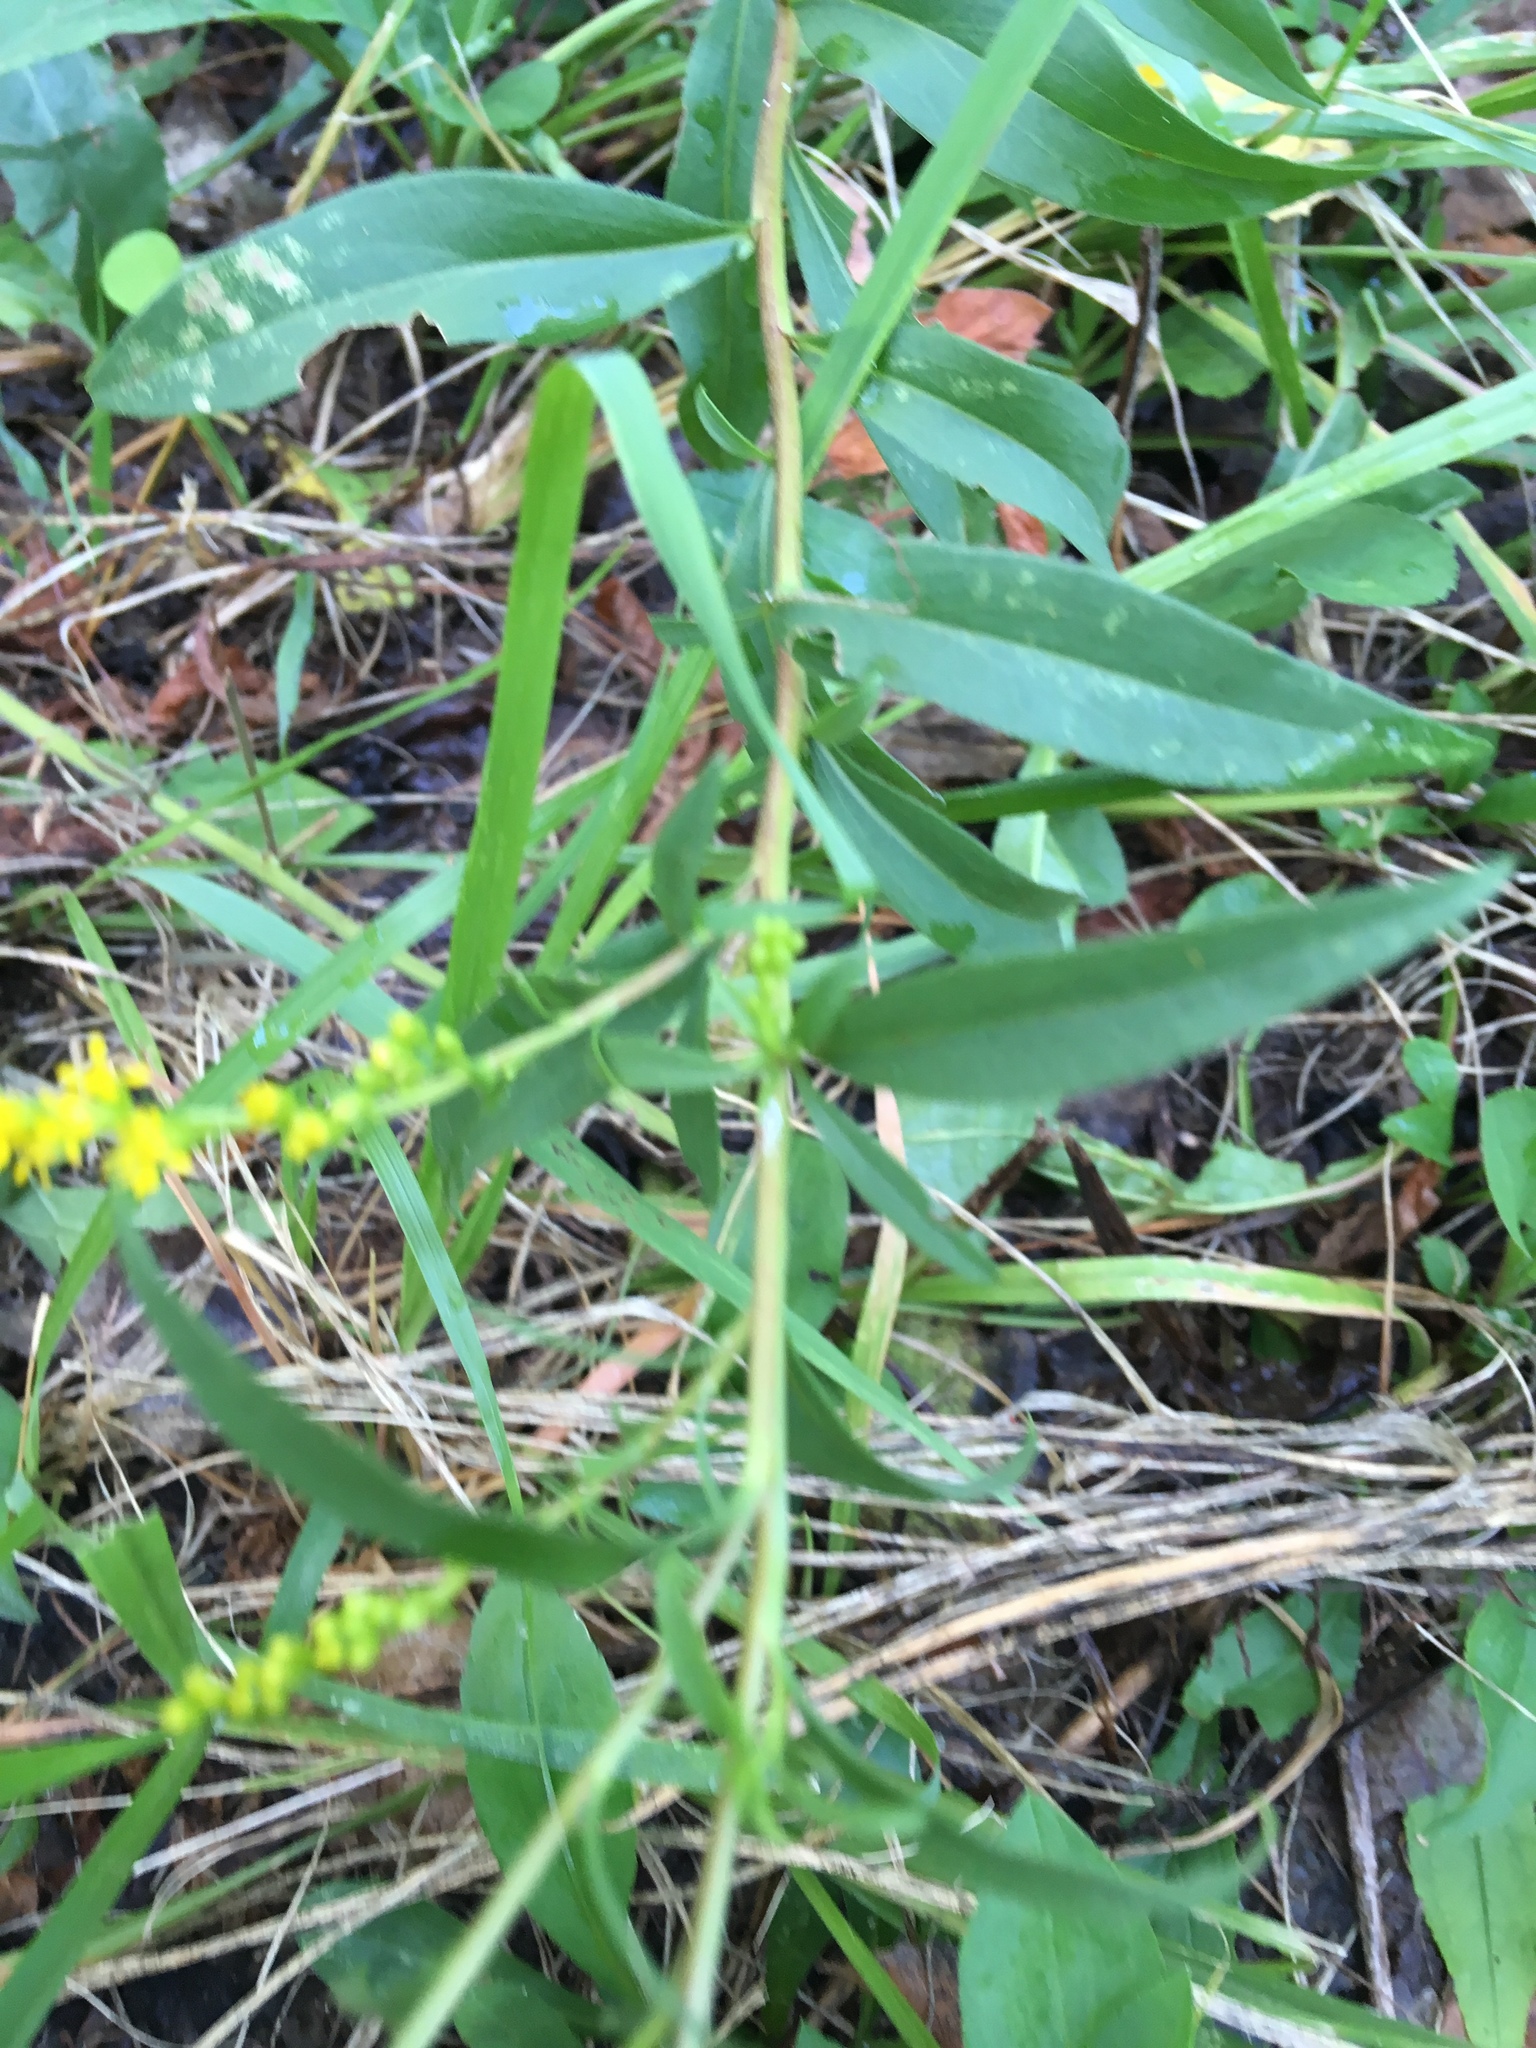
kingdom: Plantae
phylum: Tracheophyta
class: Magnoliopsida
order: Asterales
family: Asteraceae
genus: Solidago
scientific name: Solidago juncea
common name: Early goldenrod
